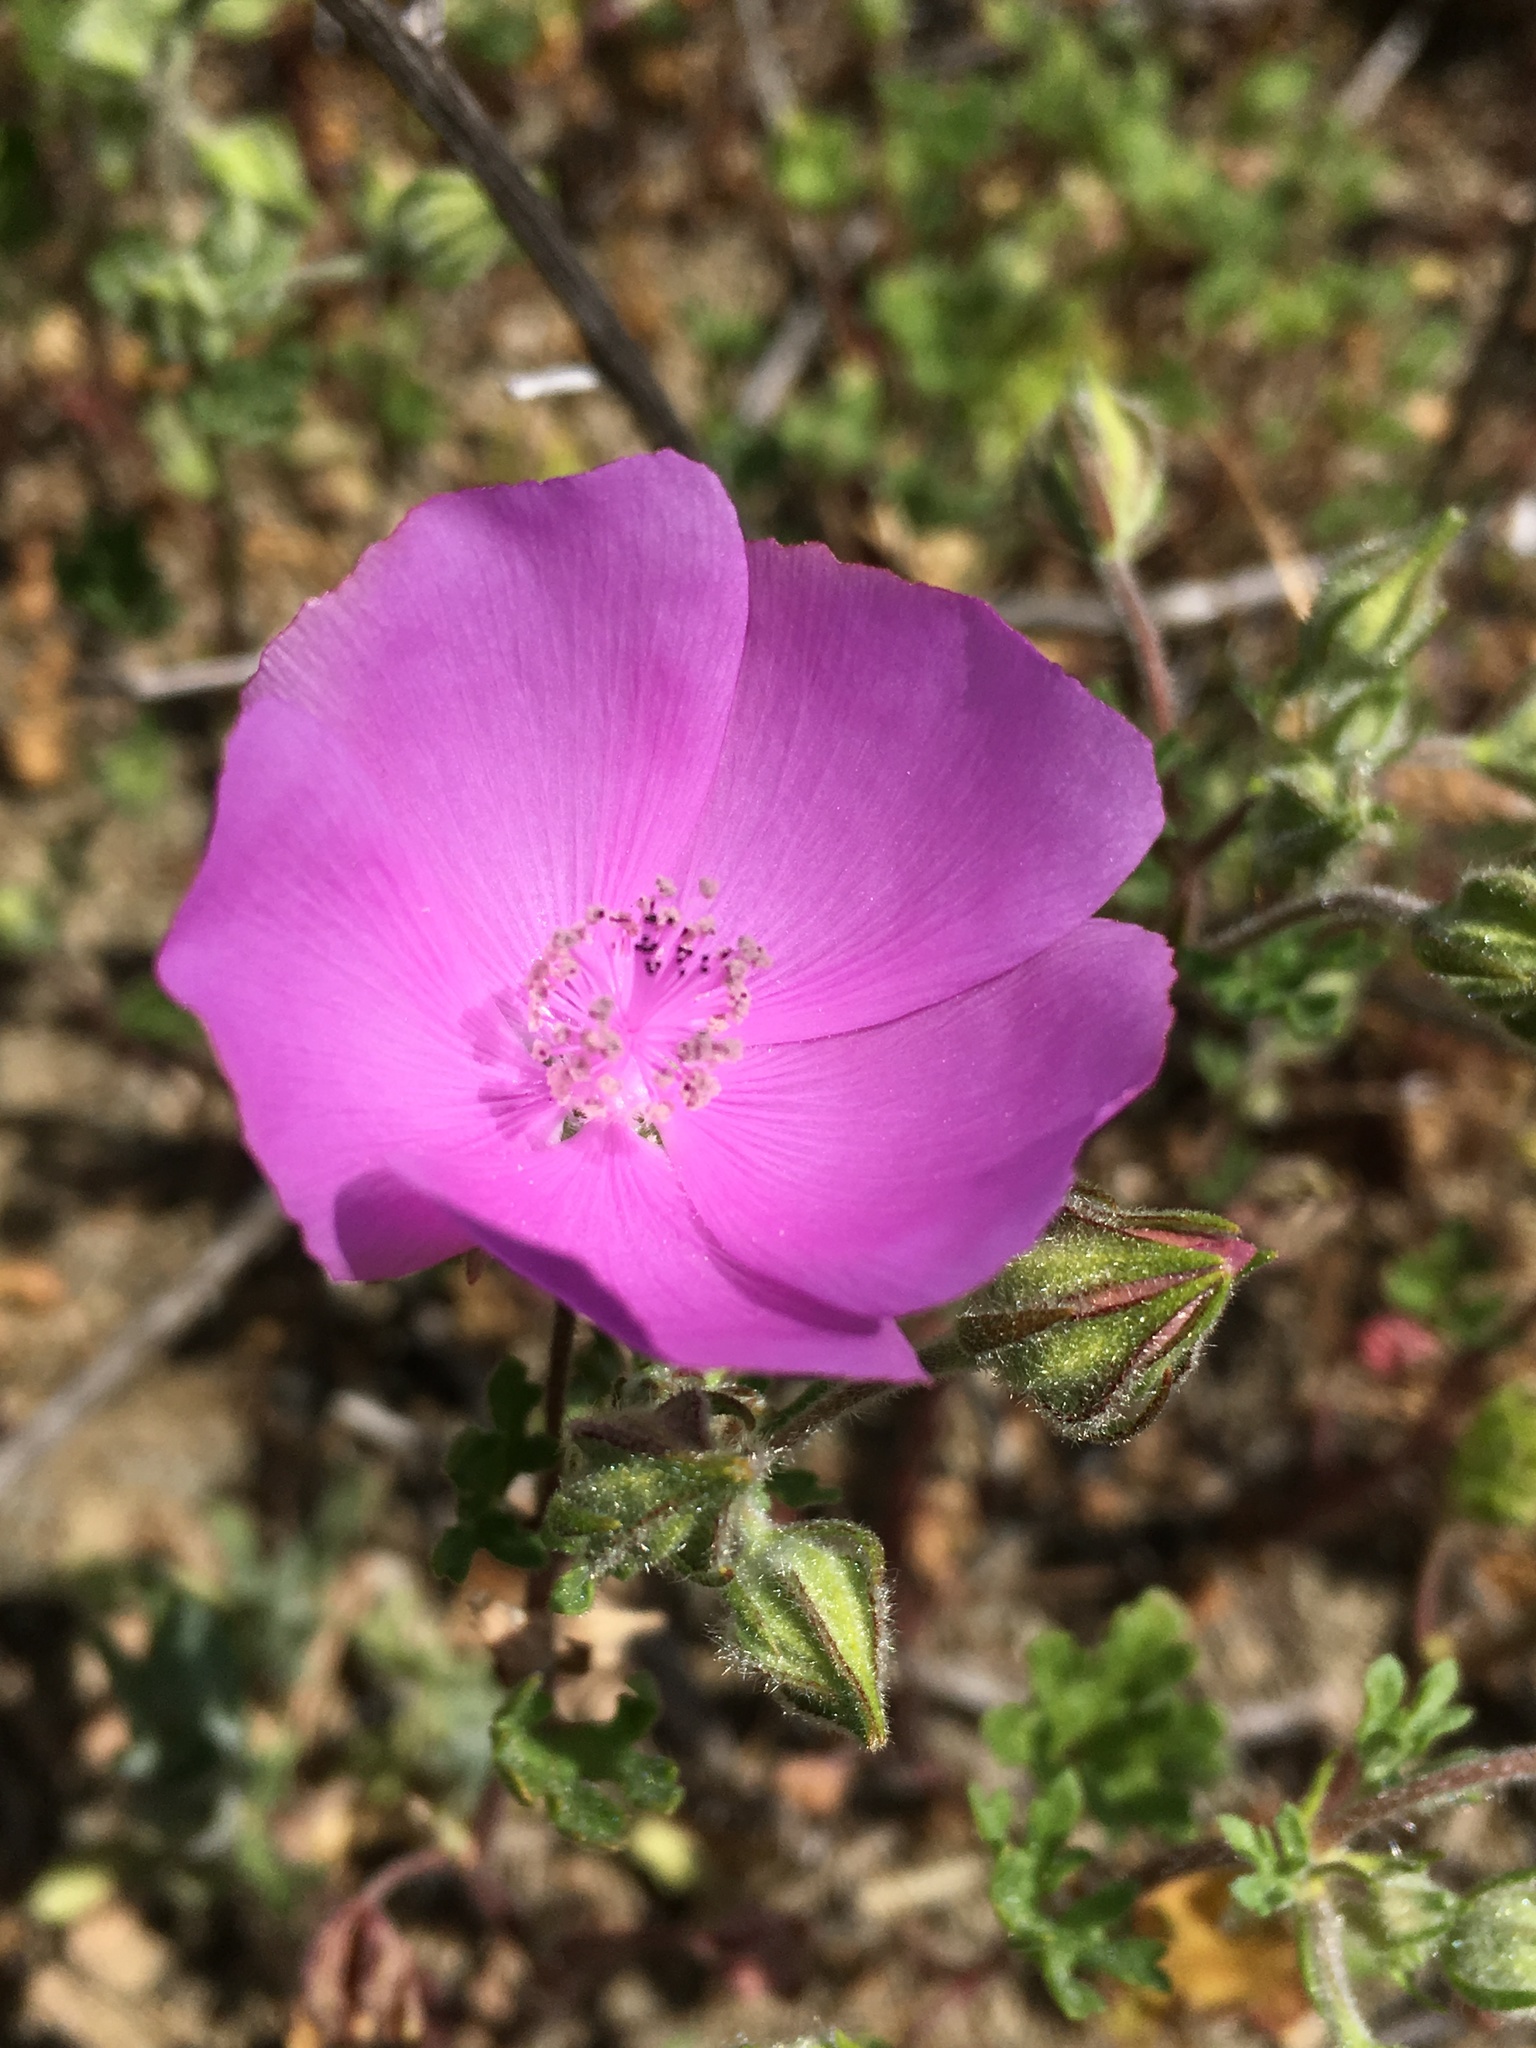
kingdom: Plantae
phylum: Tracheophyta
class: Magnoliopsida
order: Malvales
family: Malvaceae
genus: Eremalche
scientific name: Eremalche parryi
